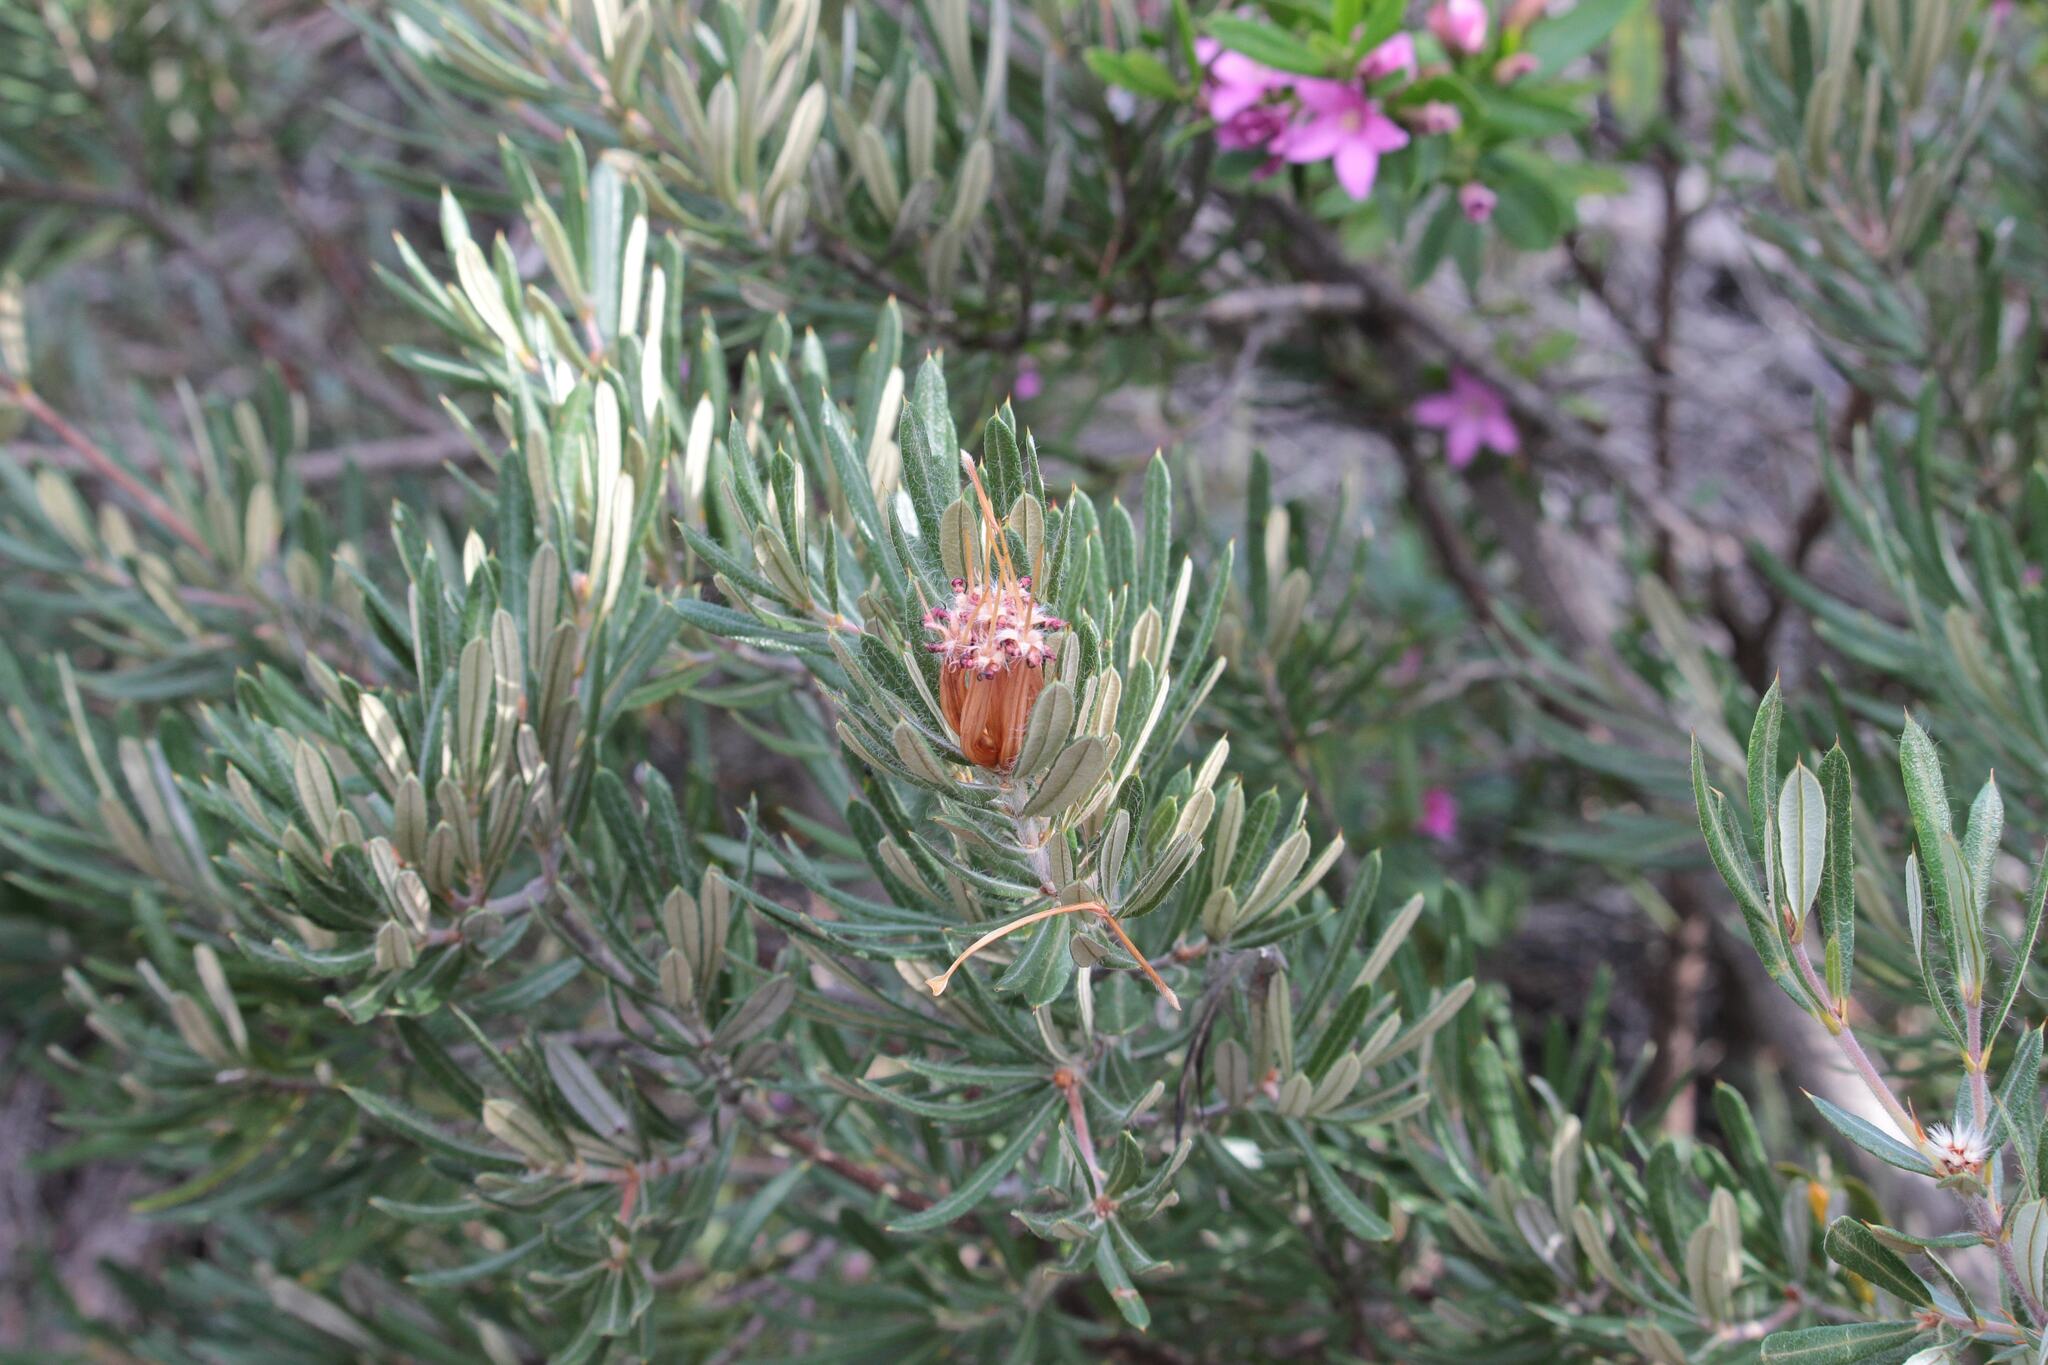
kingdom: Plantae
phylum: Tracheophyta
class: Magnoliopsida
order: Proteales
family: Proteaceae
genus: Lambertia
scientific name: Lambertia formosa
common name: Mountain-devil
